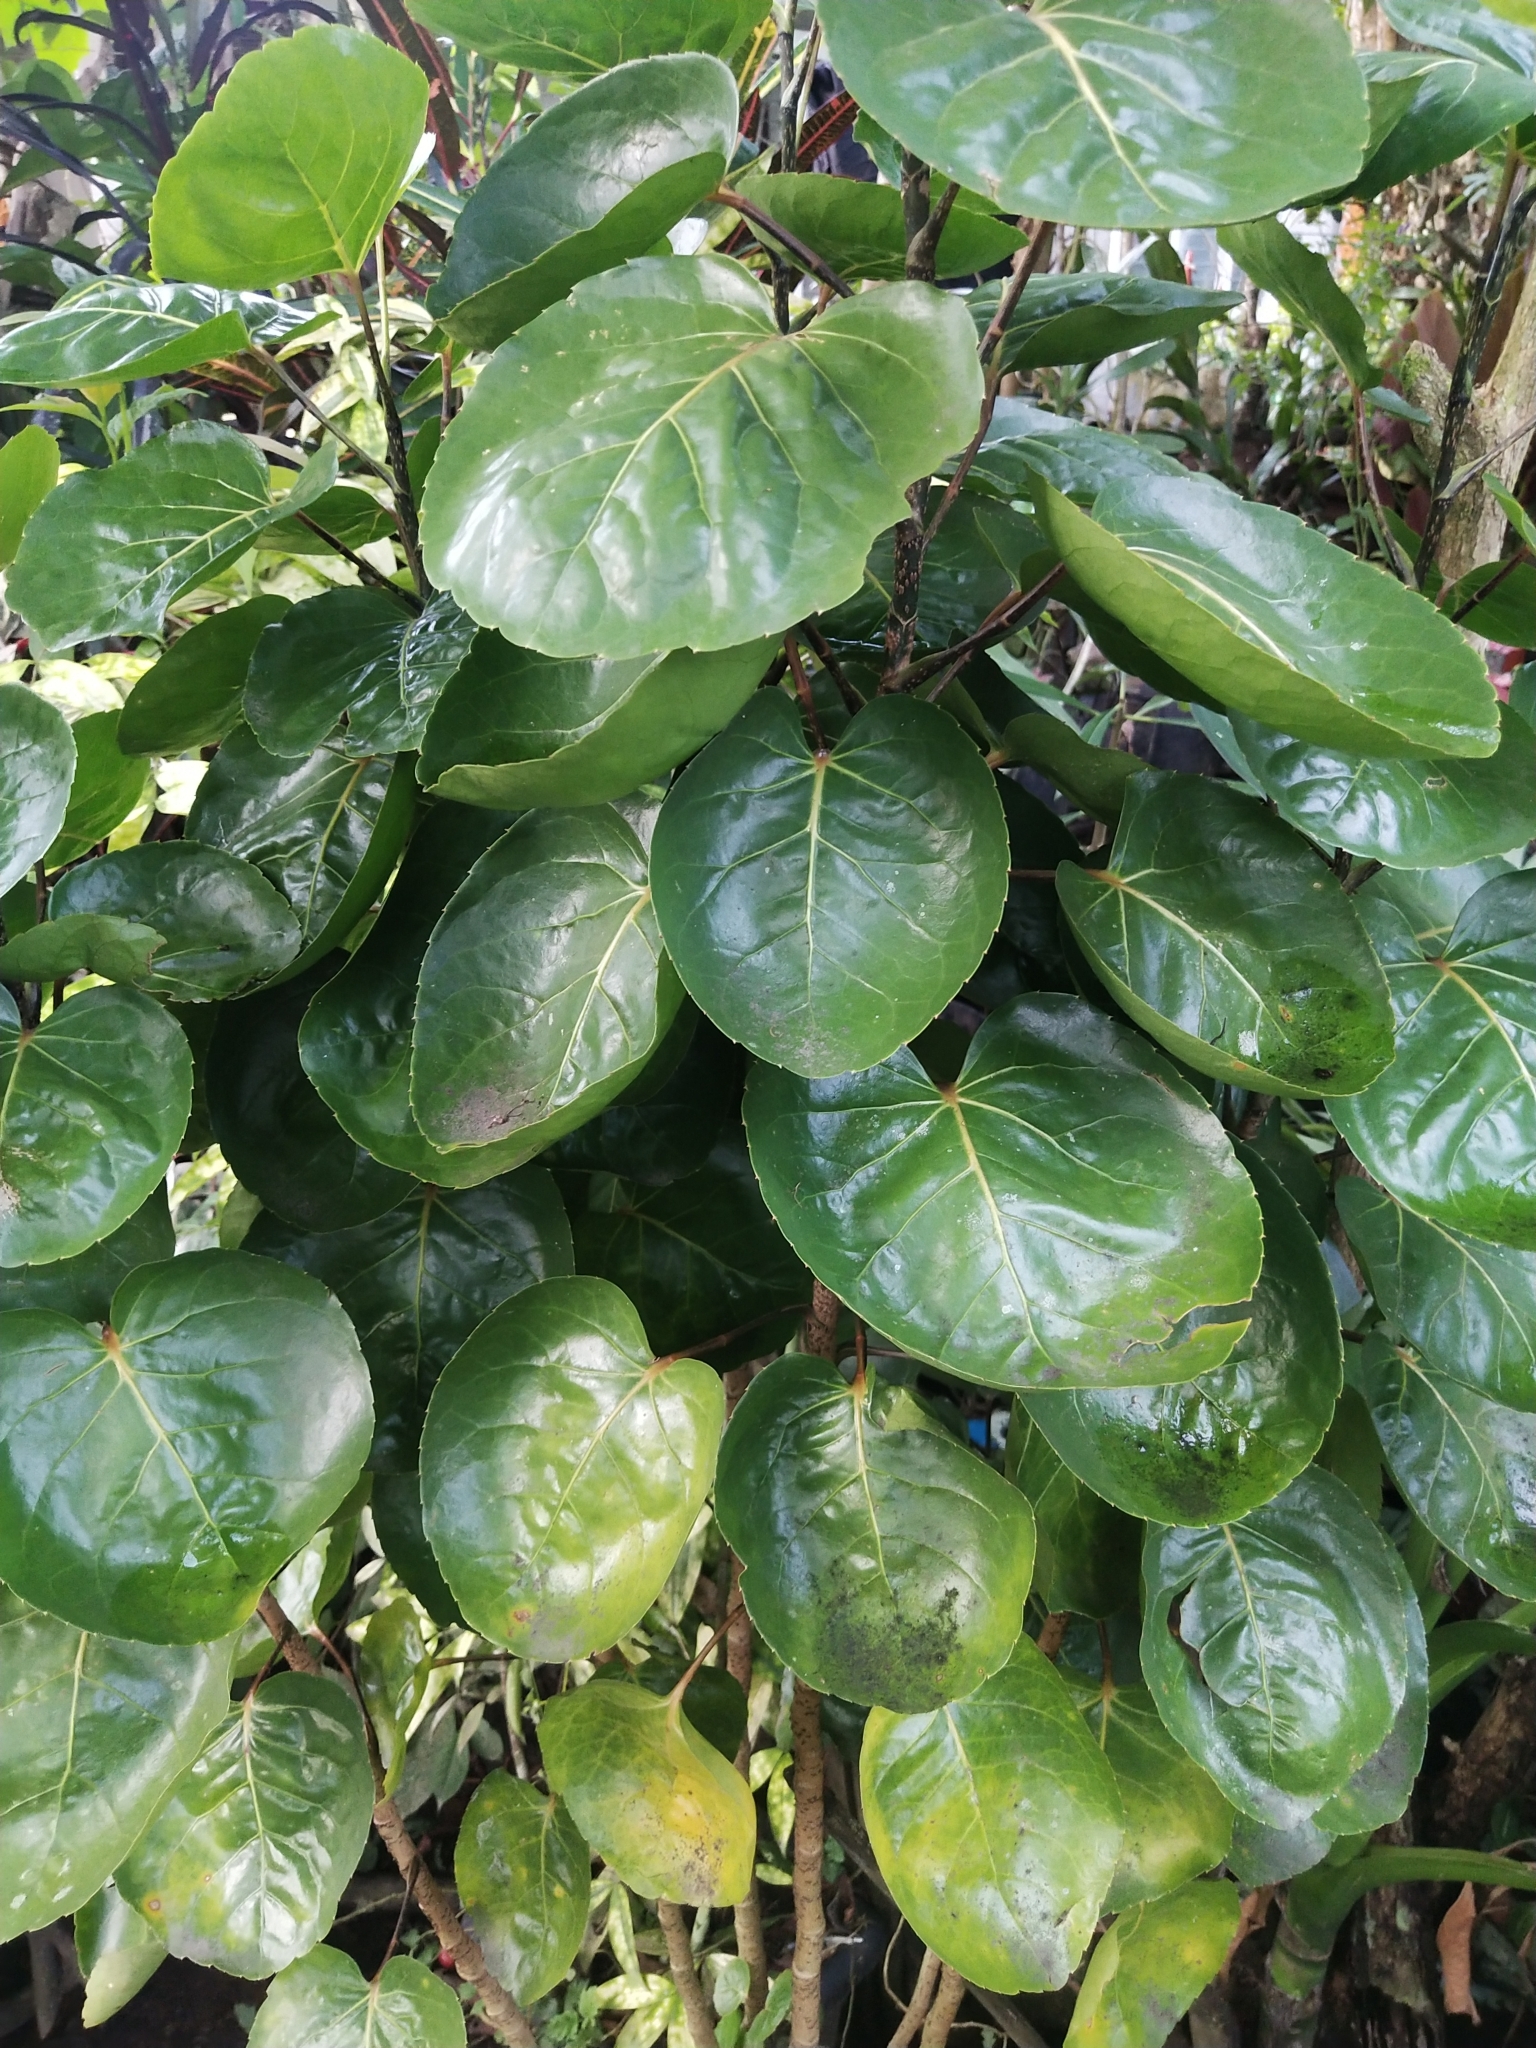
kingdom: Plantae
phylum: Tracheophyta
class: Magnoliopsida
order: Apiales
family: Araliaceae
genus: Polyscias
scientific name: Polyscias scutellaria
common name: Dinnerplate-aralia
